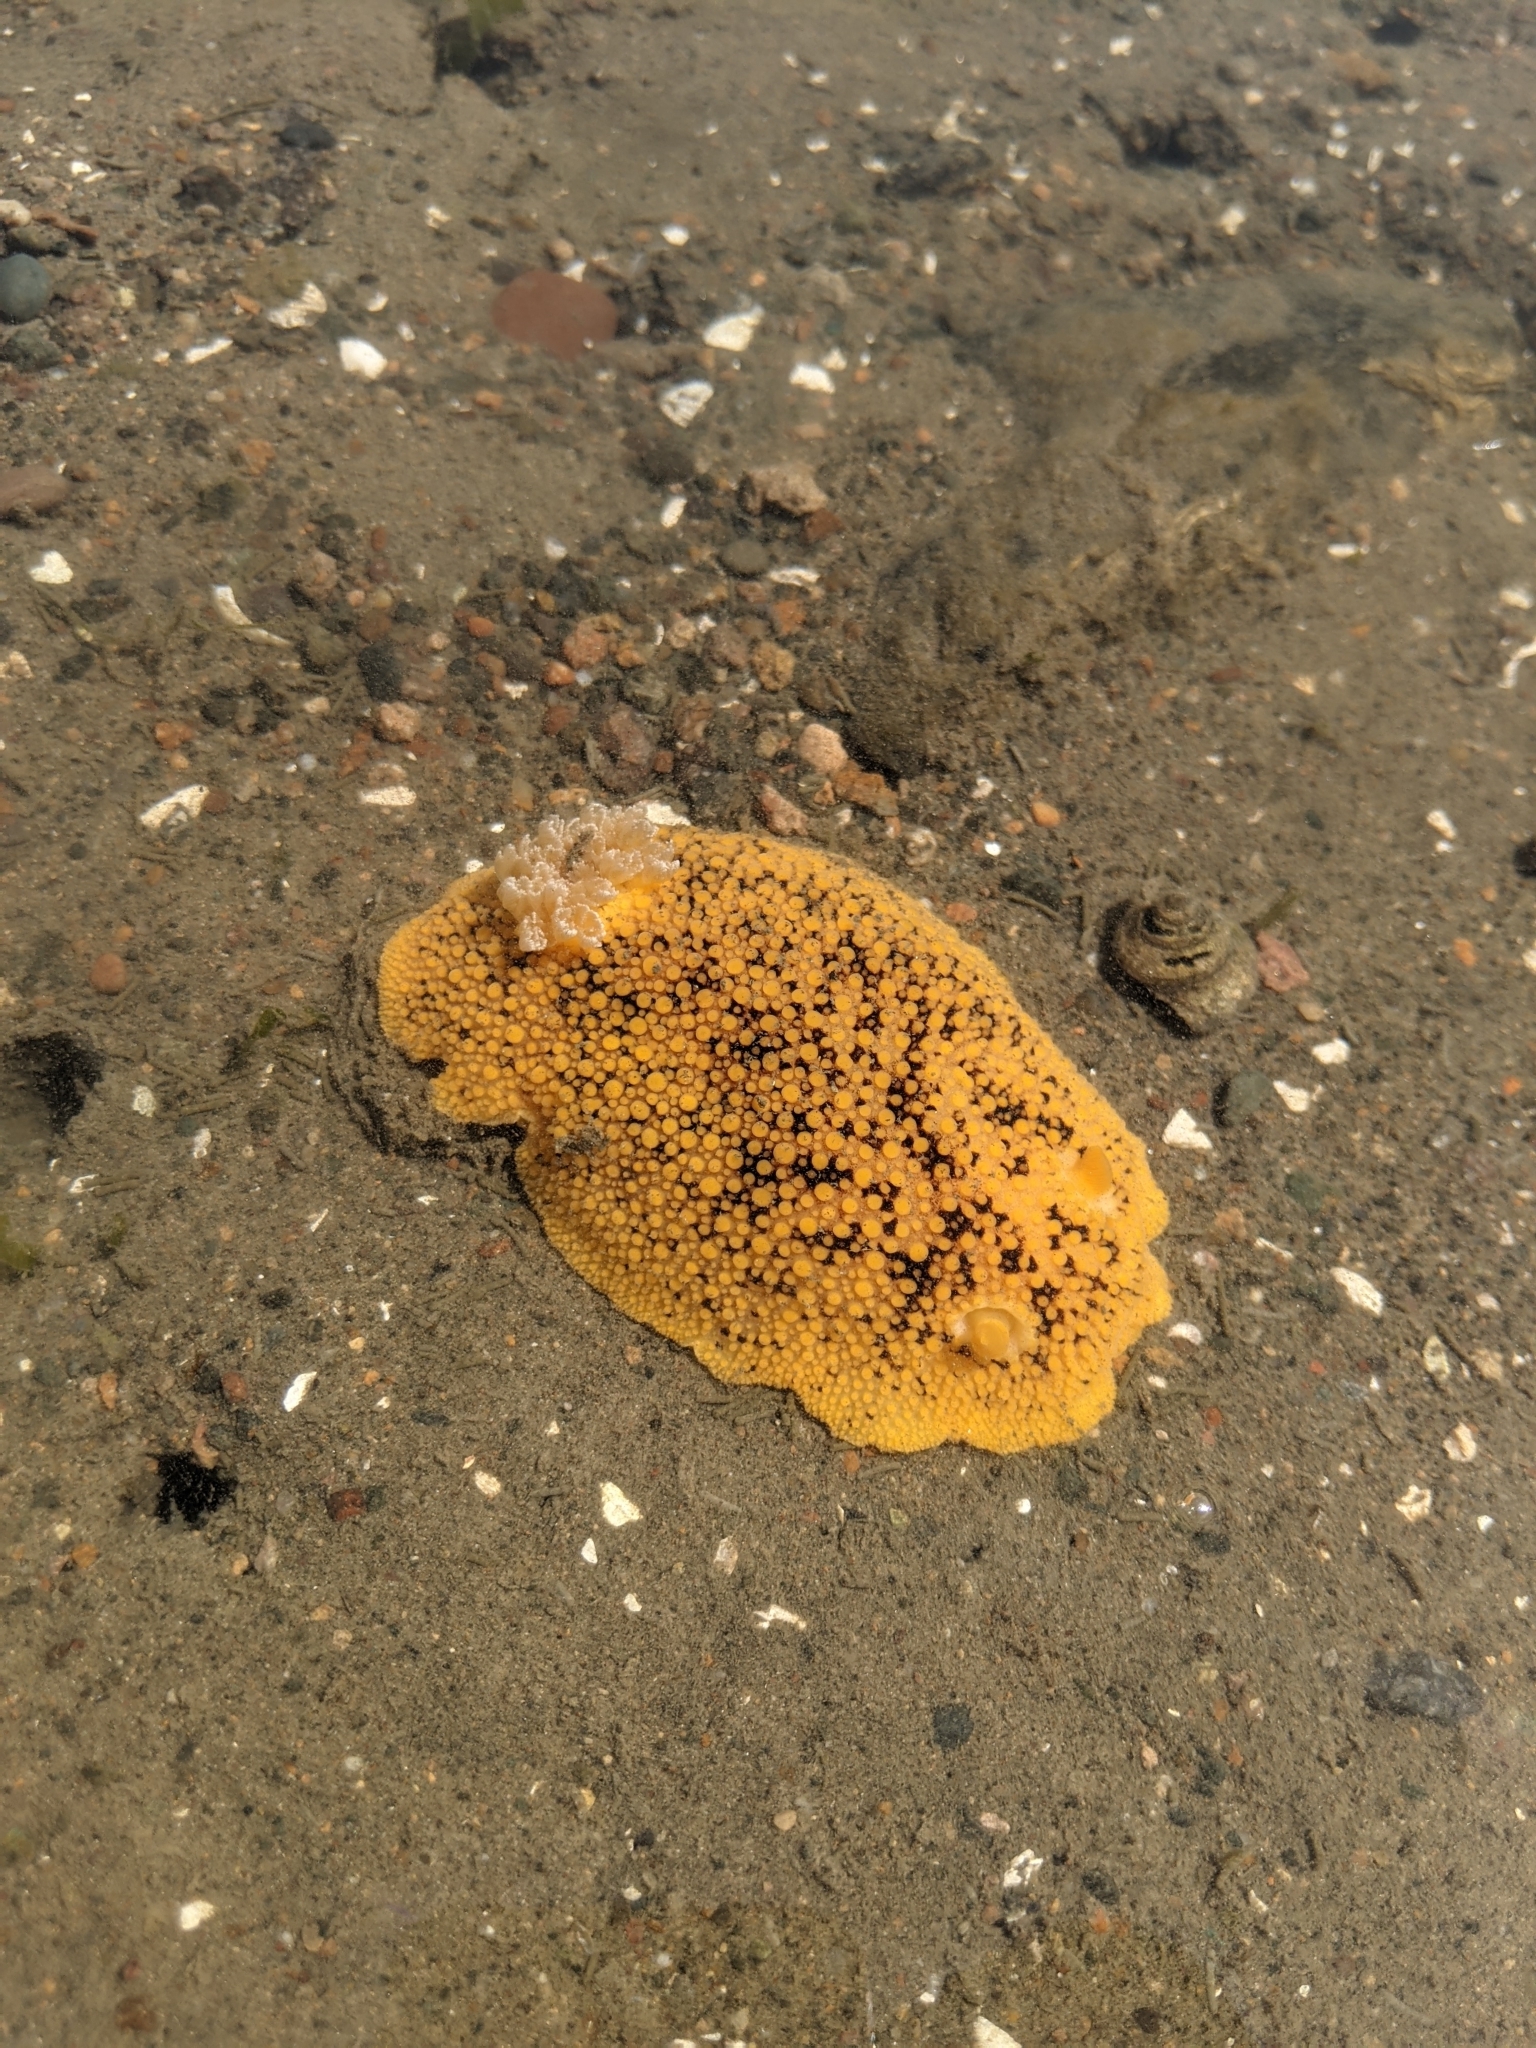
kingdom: Animalia
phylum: Mollusca
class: Gastropoda
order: Nudibranchia
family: Discodorididae
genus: Peltodoris
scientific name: Peltodoris nobilis
